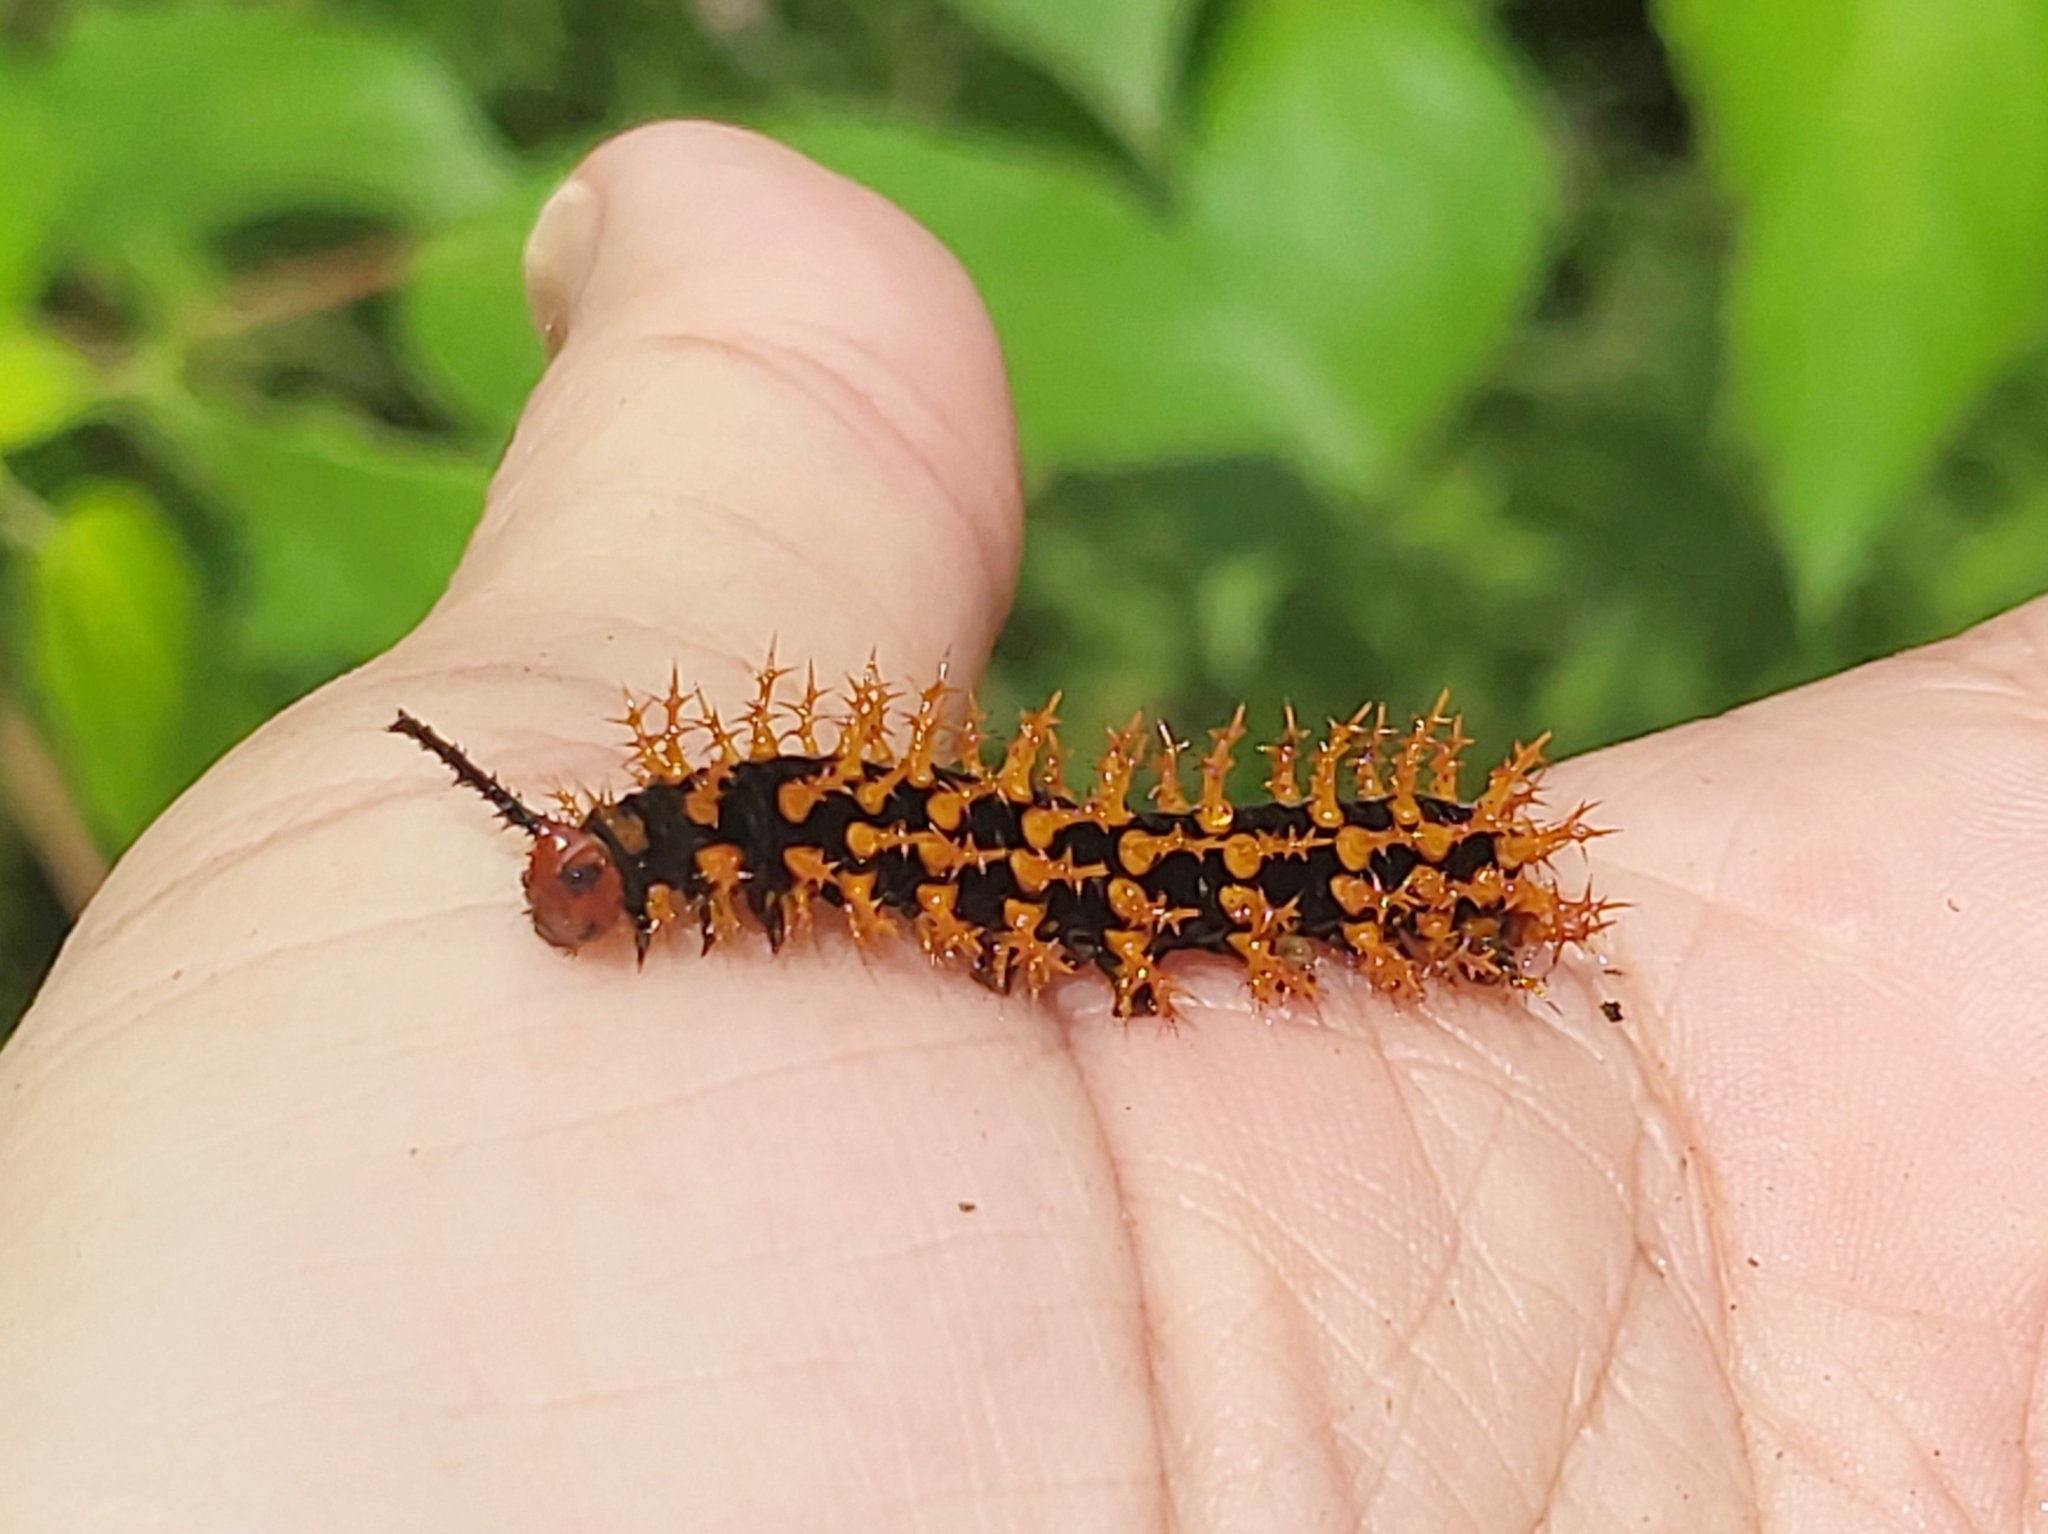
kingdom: Animalia
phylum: Arthropoda
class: Insecta
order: Lepidoptera
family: Nymphalidae
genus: Hypolimnas
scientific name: Hypolimnas anomala
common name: Malayan eggfly
